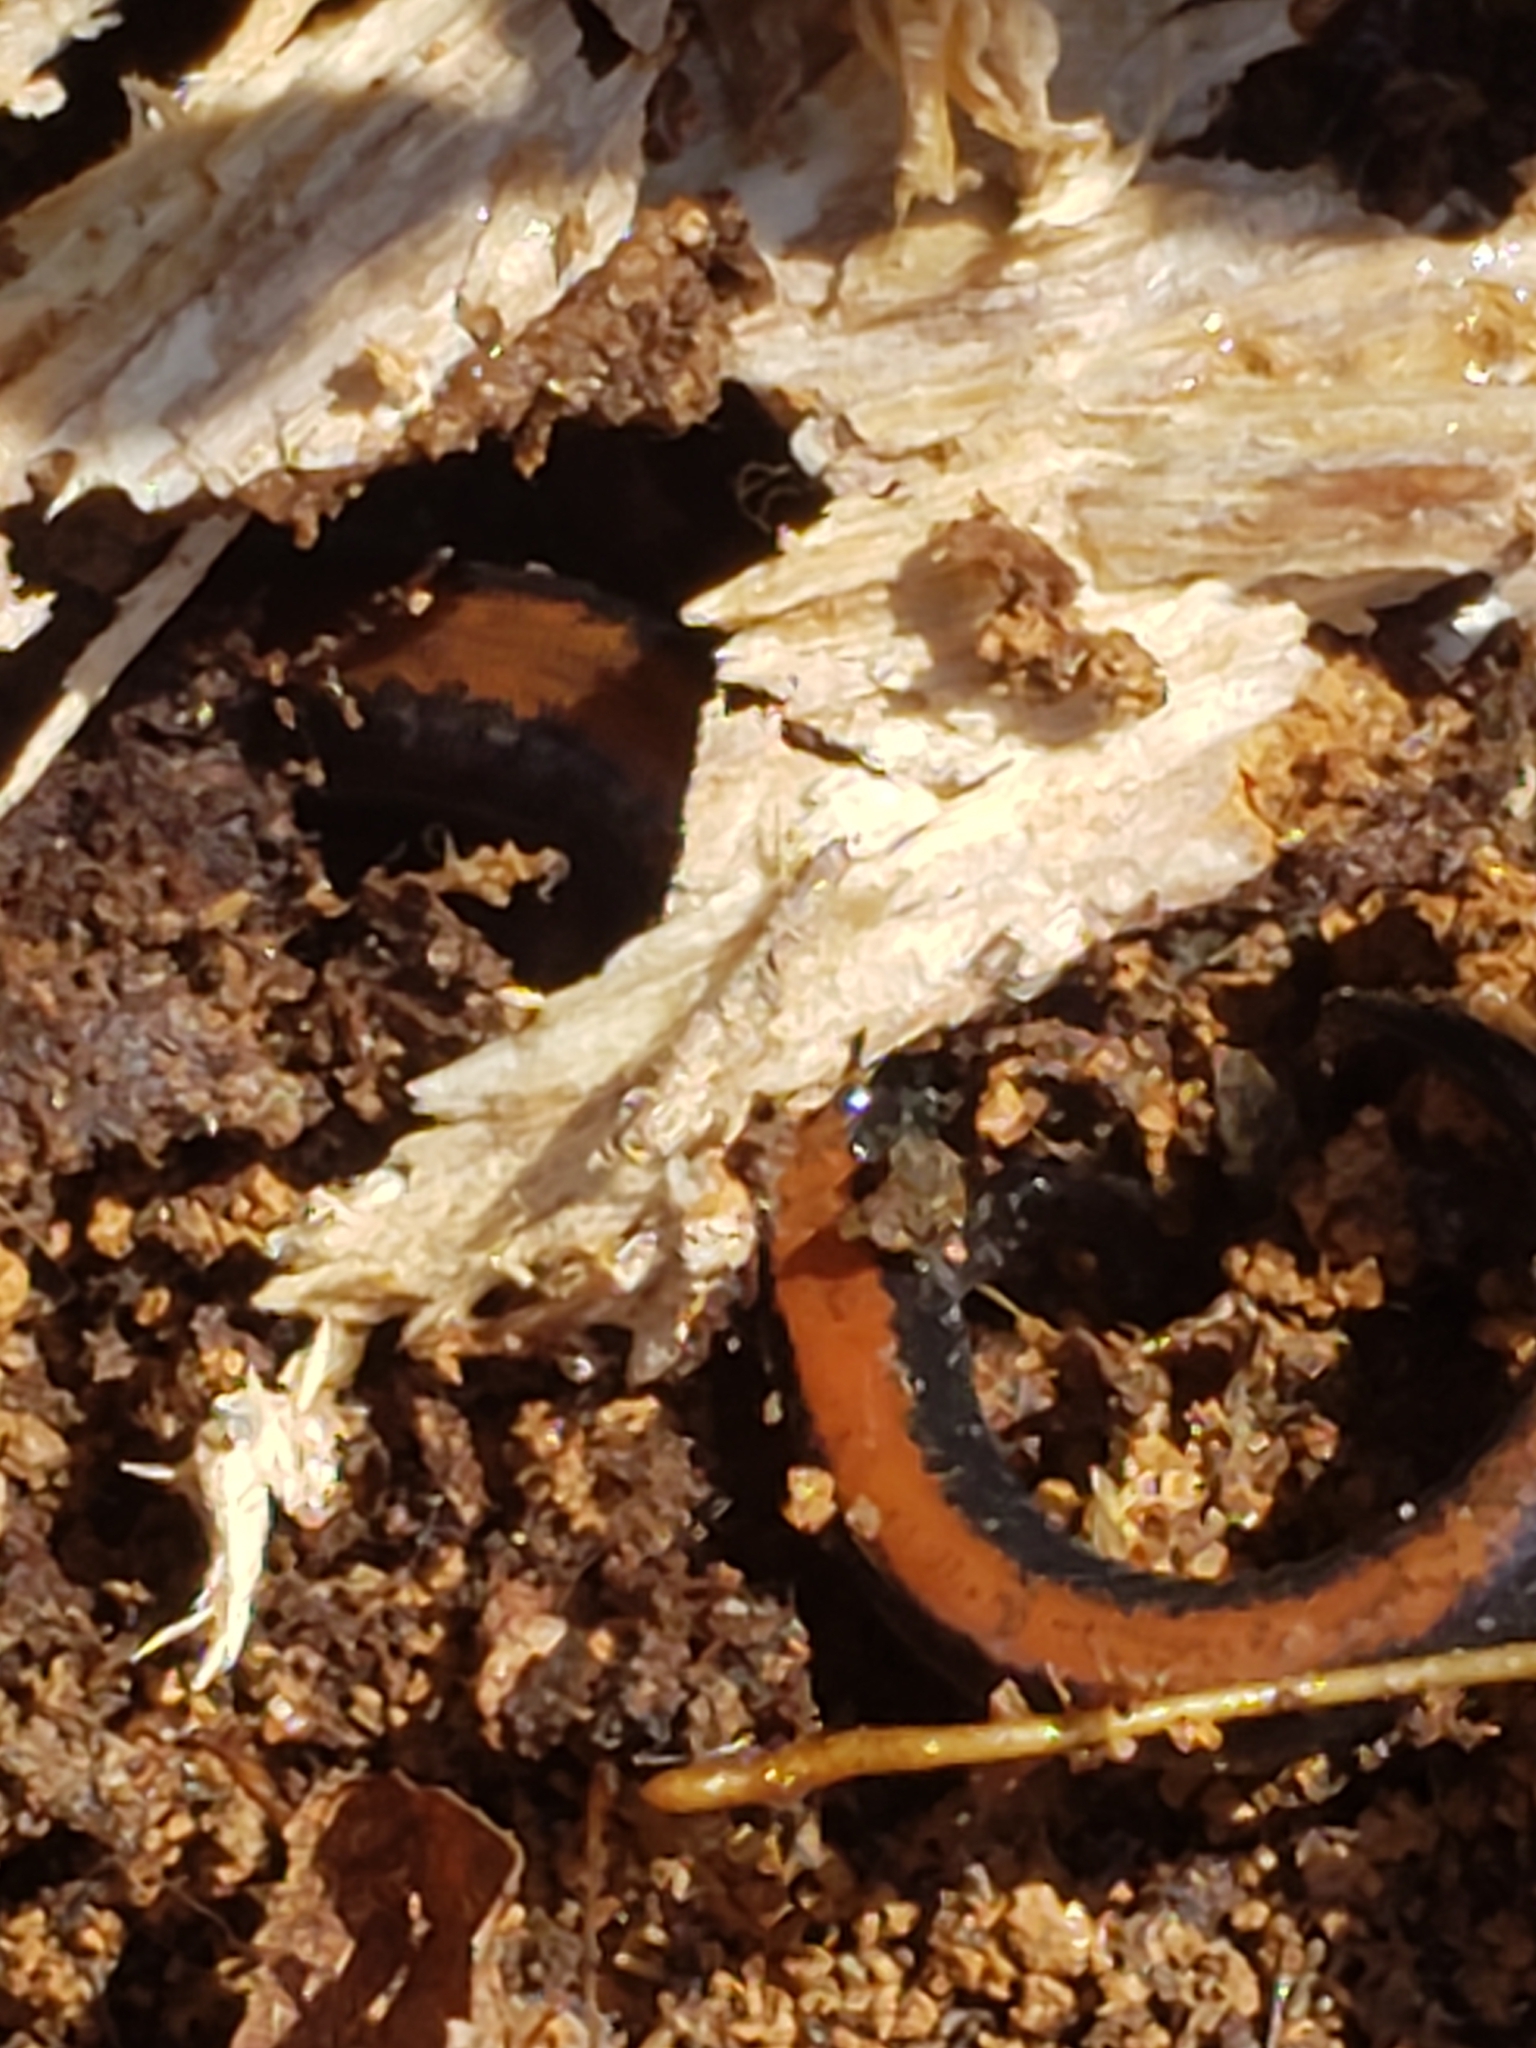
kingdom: Animalia
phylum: Chordata
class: Amphibia
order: Caudata
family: Plethodontidae
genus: Plethodon
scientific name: Plethodon cinereus
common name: Redback salamander
